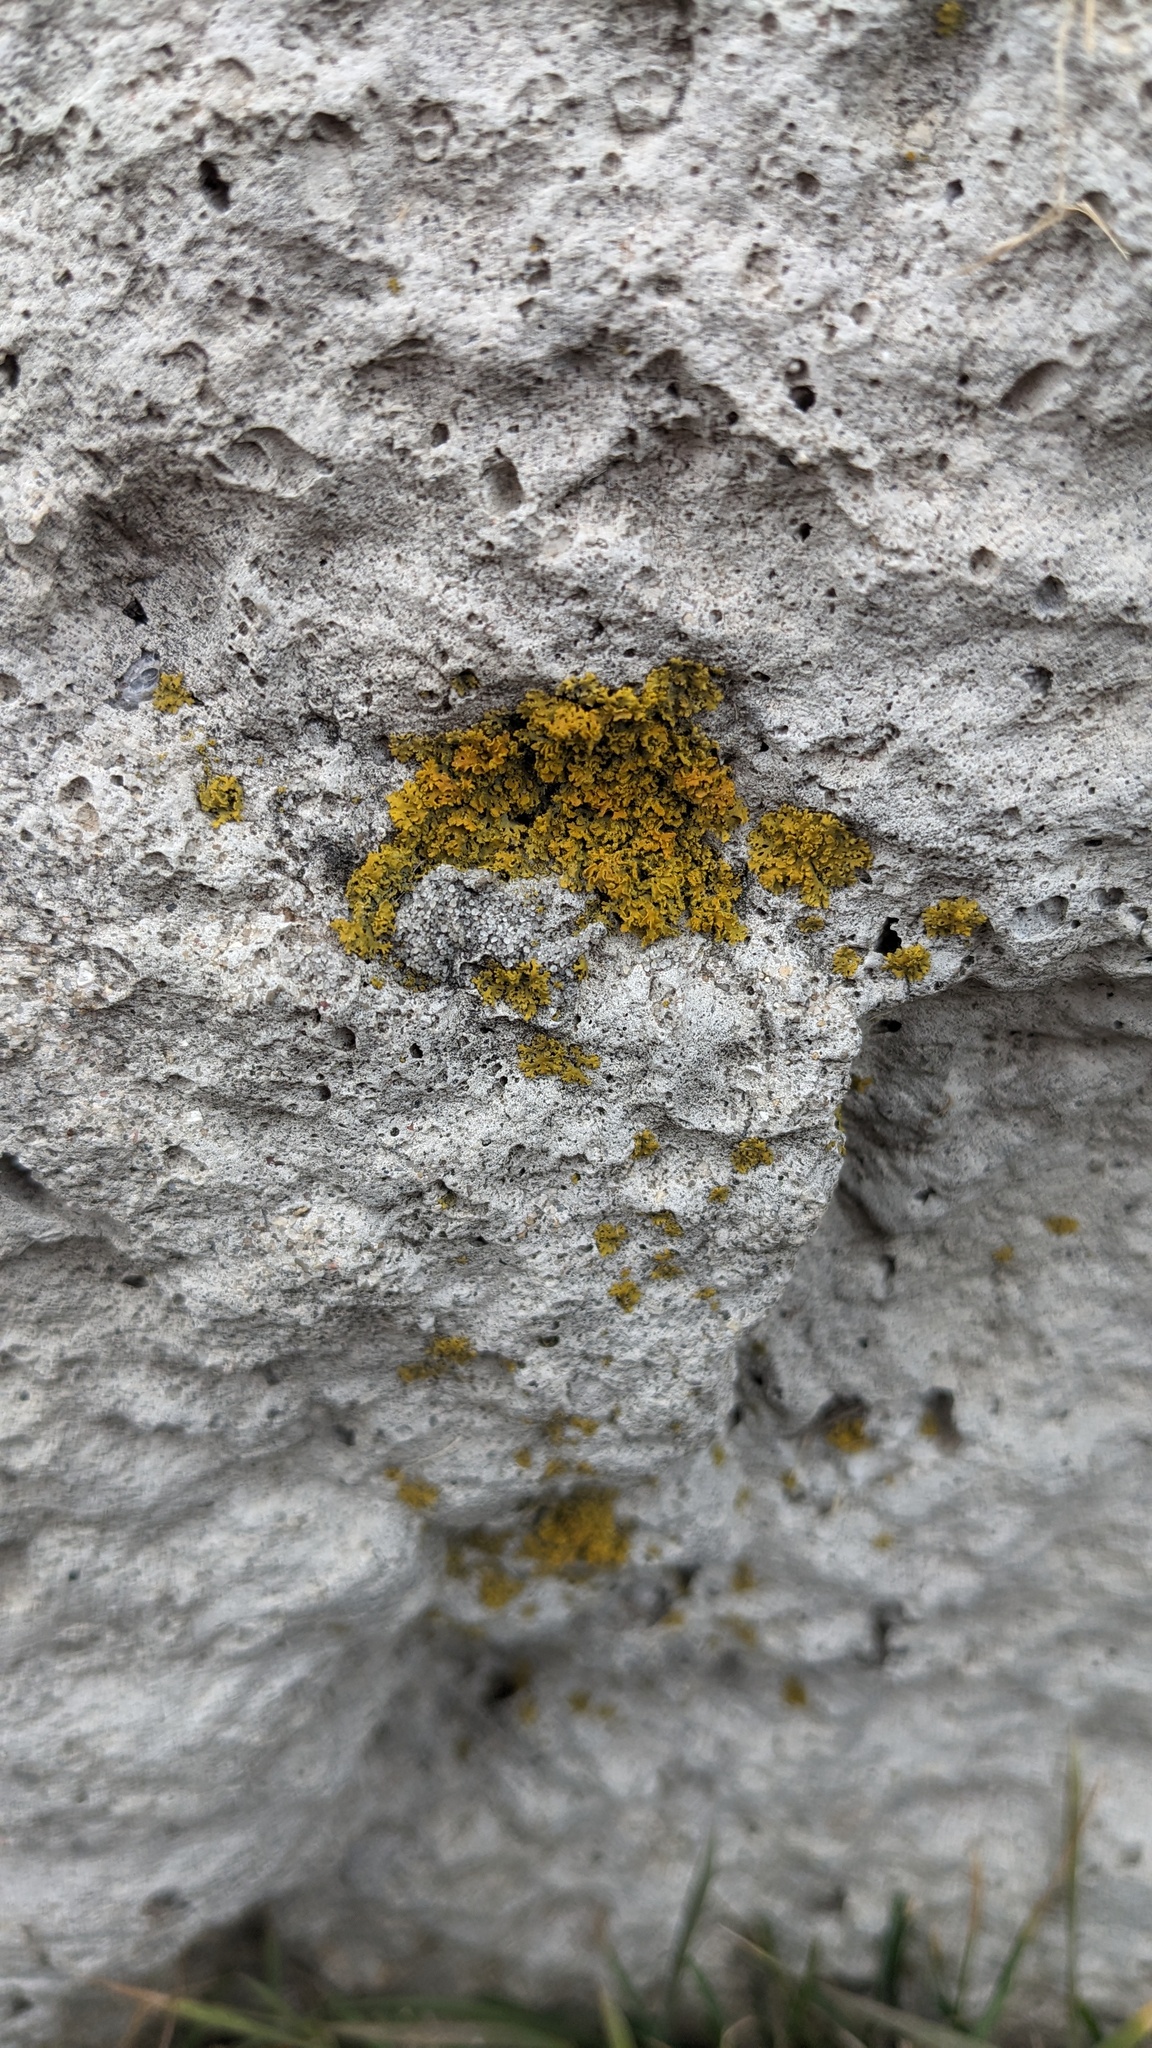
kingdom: Fungi
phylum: Ascomycota
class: Lecanoromycetes
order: Teloschistales
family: Teloschistaceae
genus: Oxneria
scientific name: Oxneria fallax
